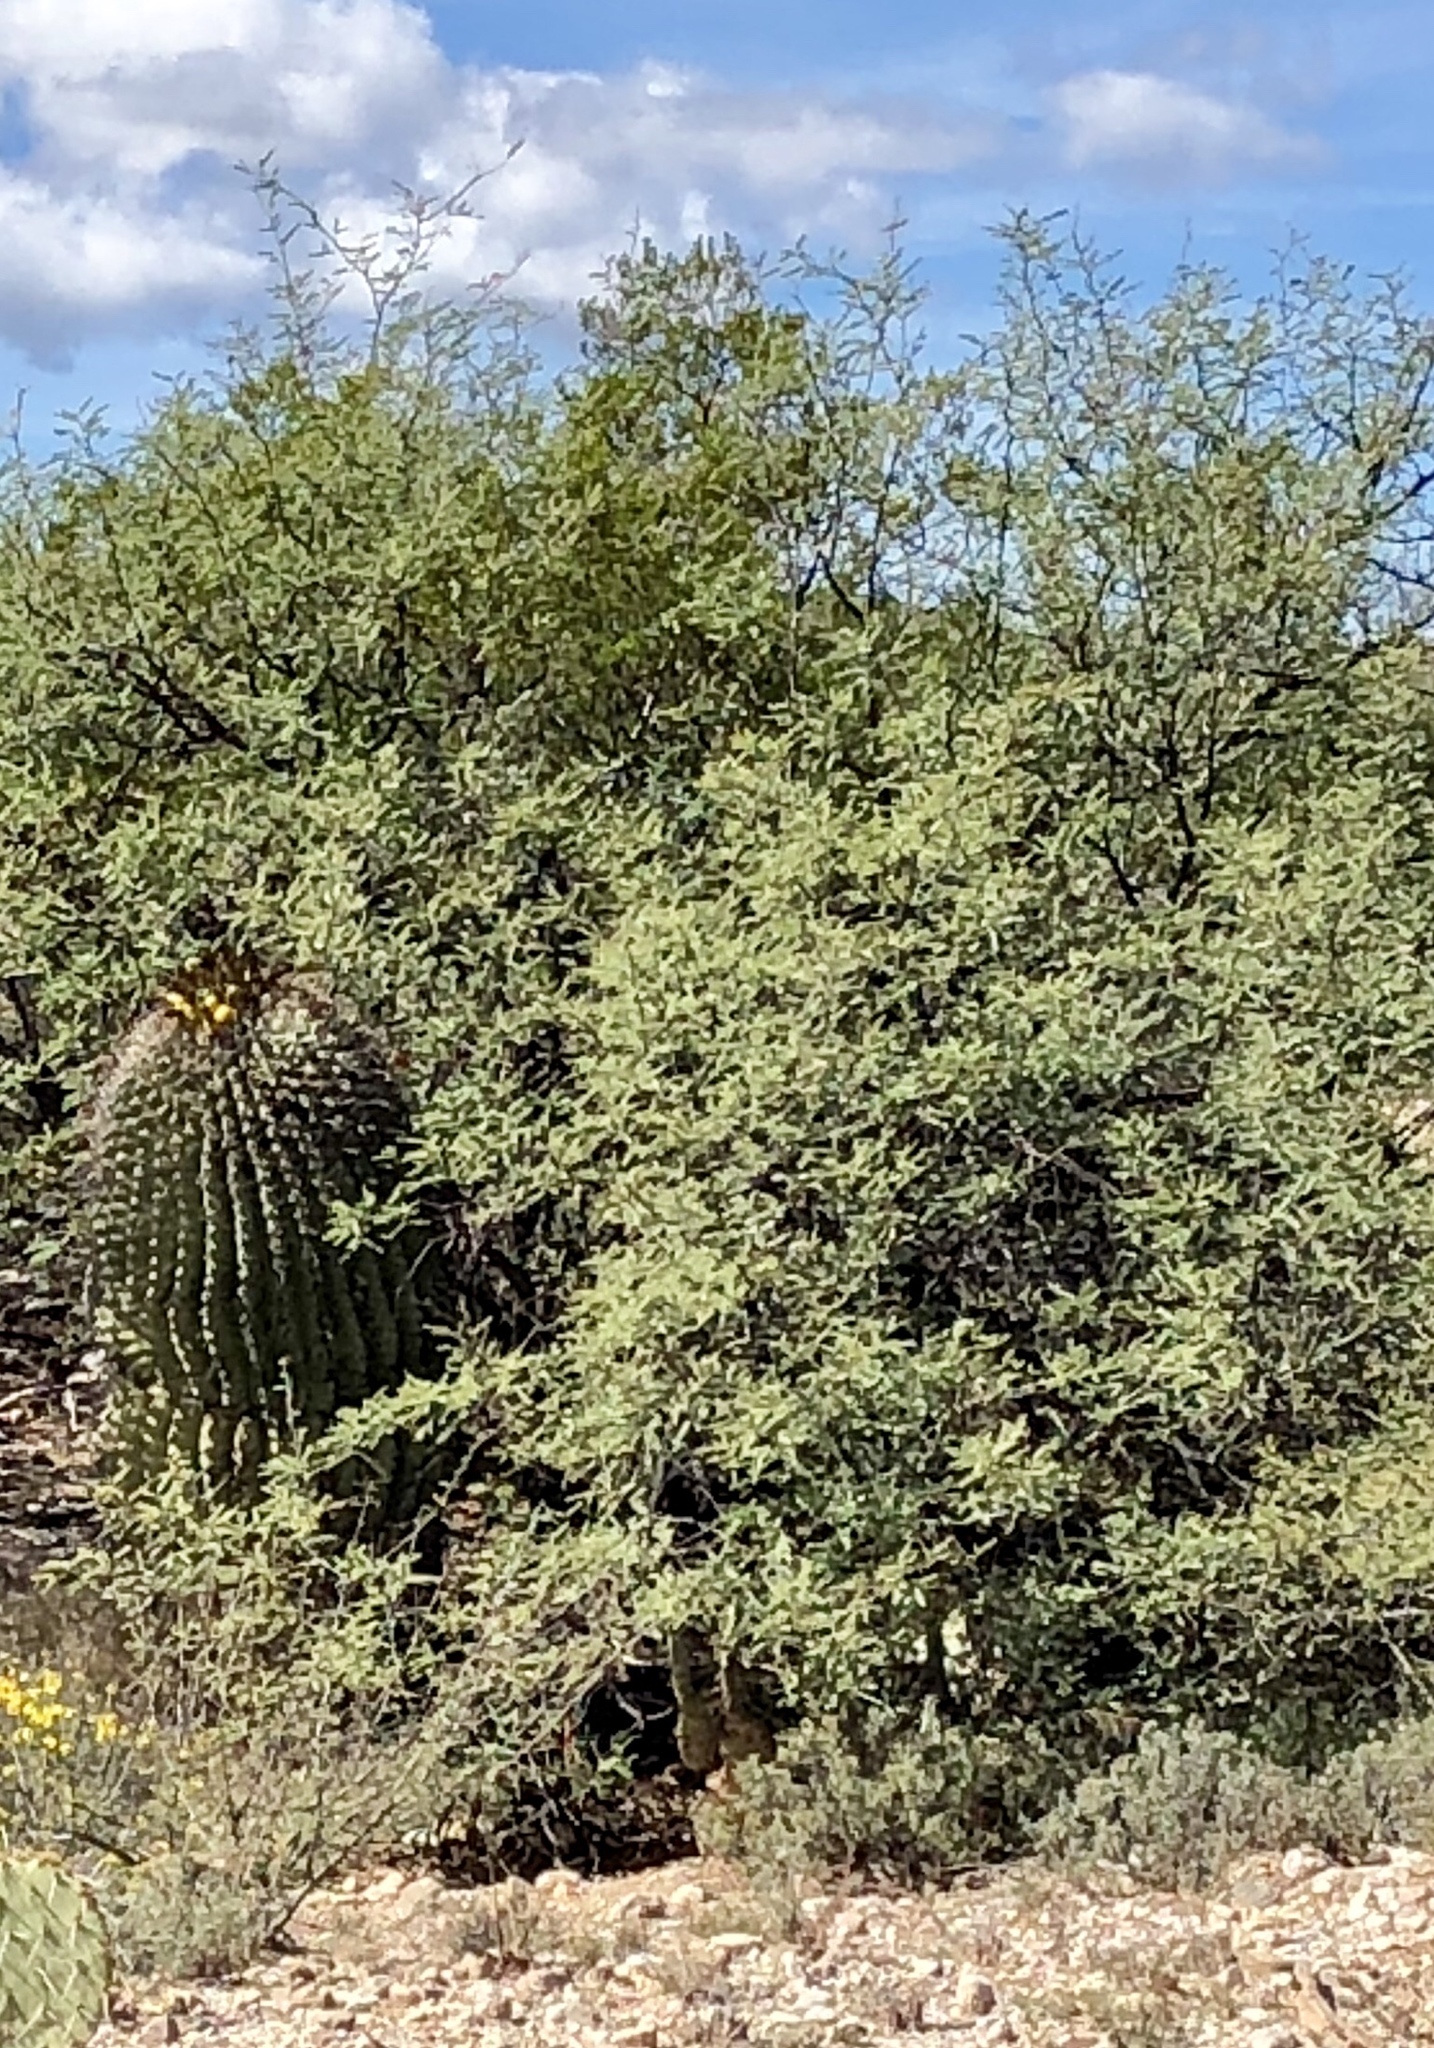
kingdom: Plantae
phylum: Tracheophyta
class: Magnoliopsida
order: Fabales
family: Fabaceae
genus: Prosopis
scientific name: Prosopis velutina
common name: Velvet mesquite
